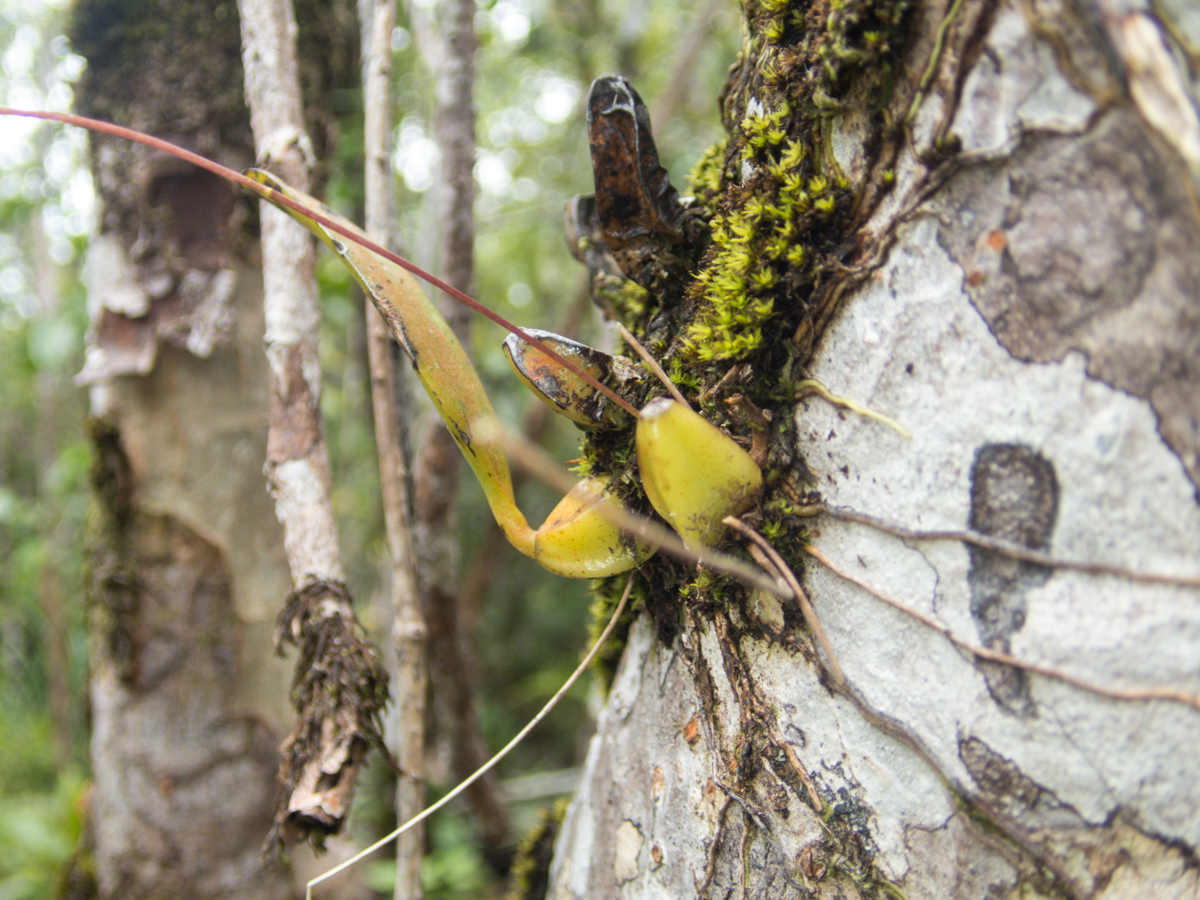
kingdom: Plantae
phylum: Tracheophyta
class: Liliopsida
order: Asparagales
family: Orchidaceae
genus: Bulbophyllum
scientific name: Bulbophyllum lepidum
